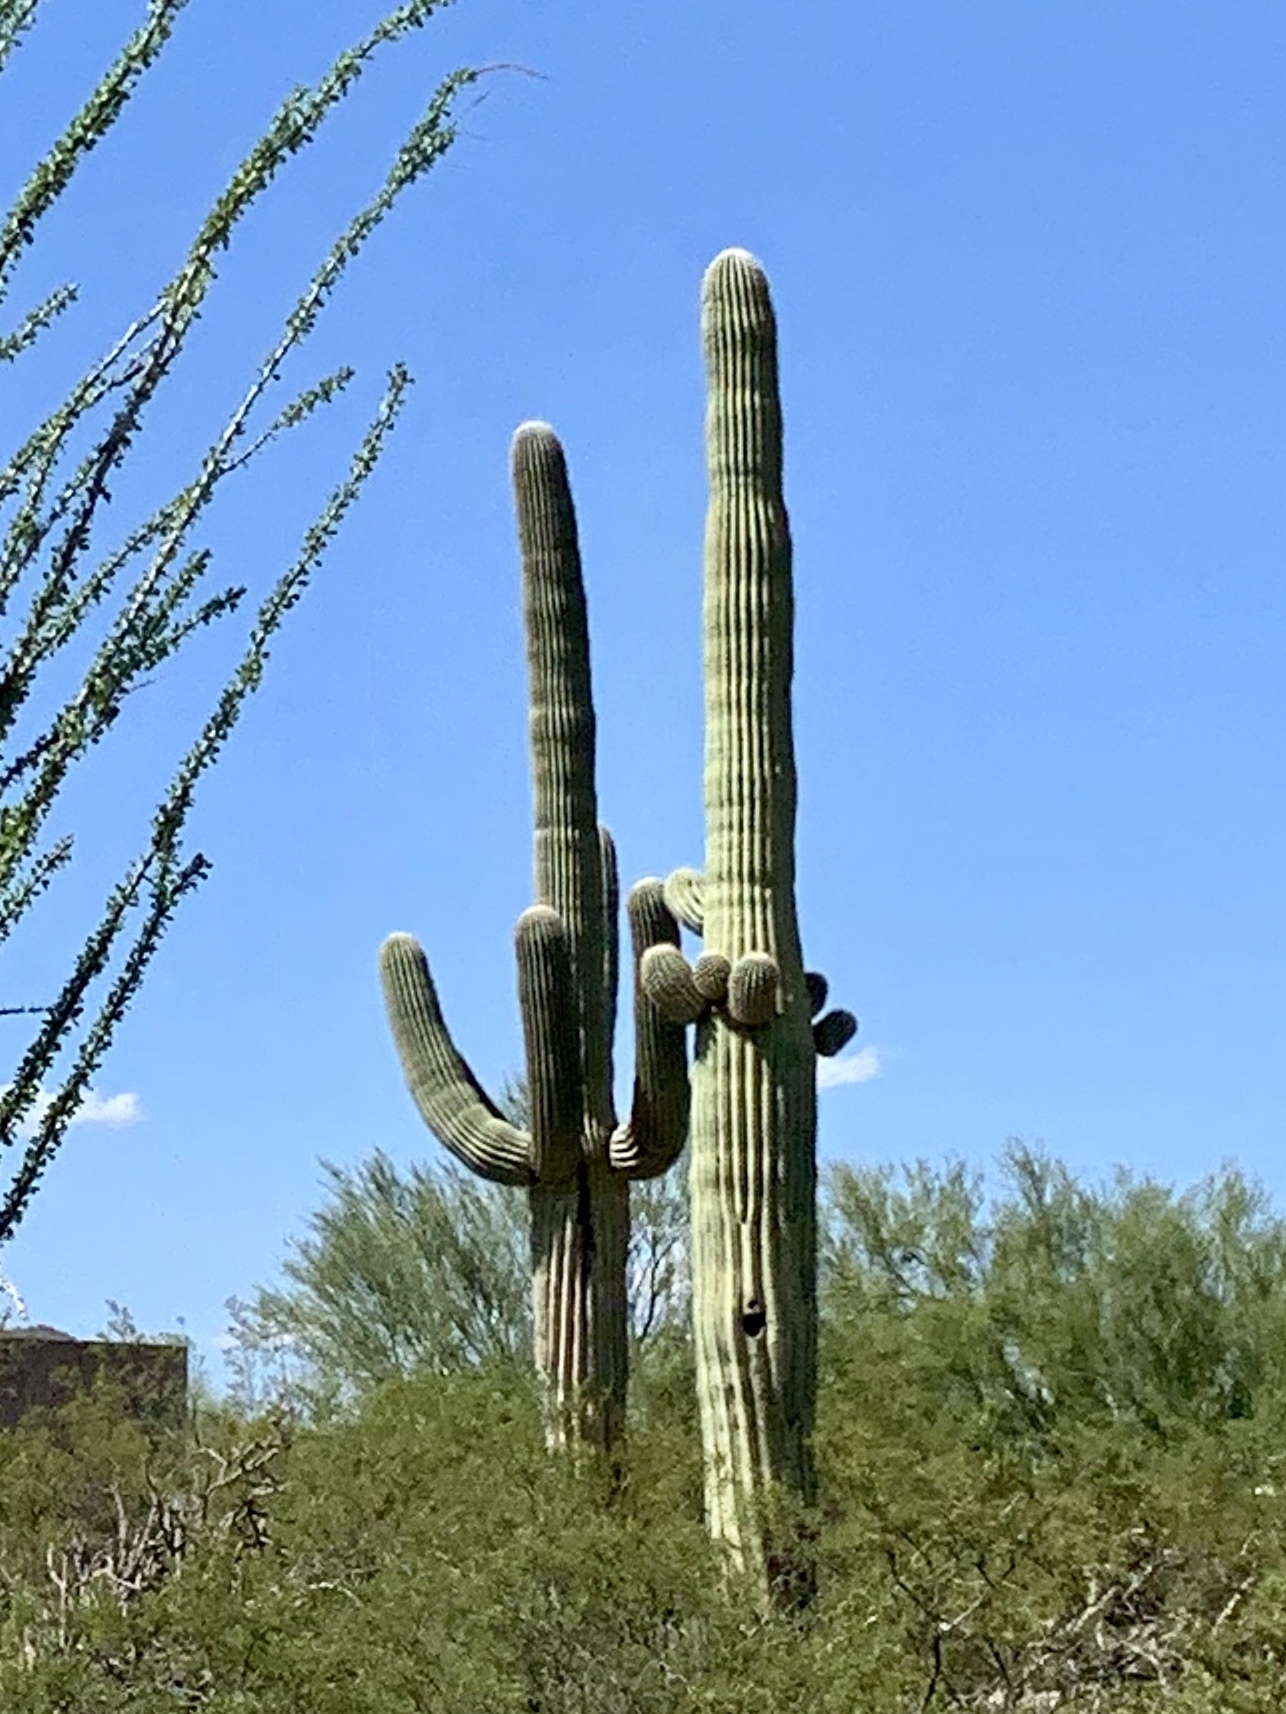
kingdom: Plantae
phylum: Tracheophyta
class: Magnoliopsida
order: Caryophyllales
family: Cactaceae
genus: Carnegiea
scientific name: Carnegiea gigantea
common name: Saguaro
